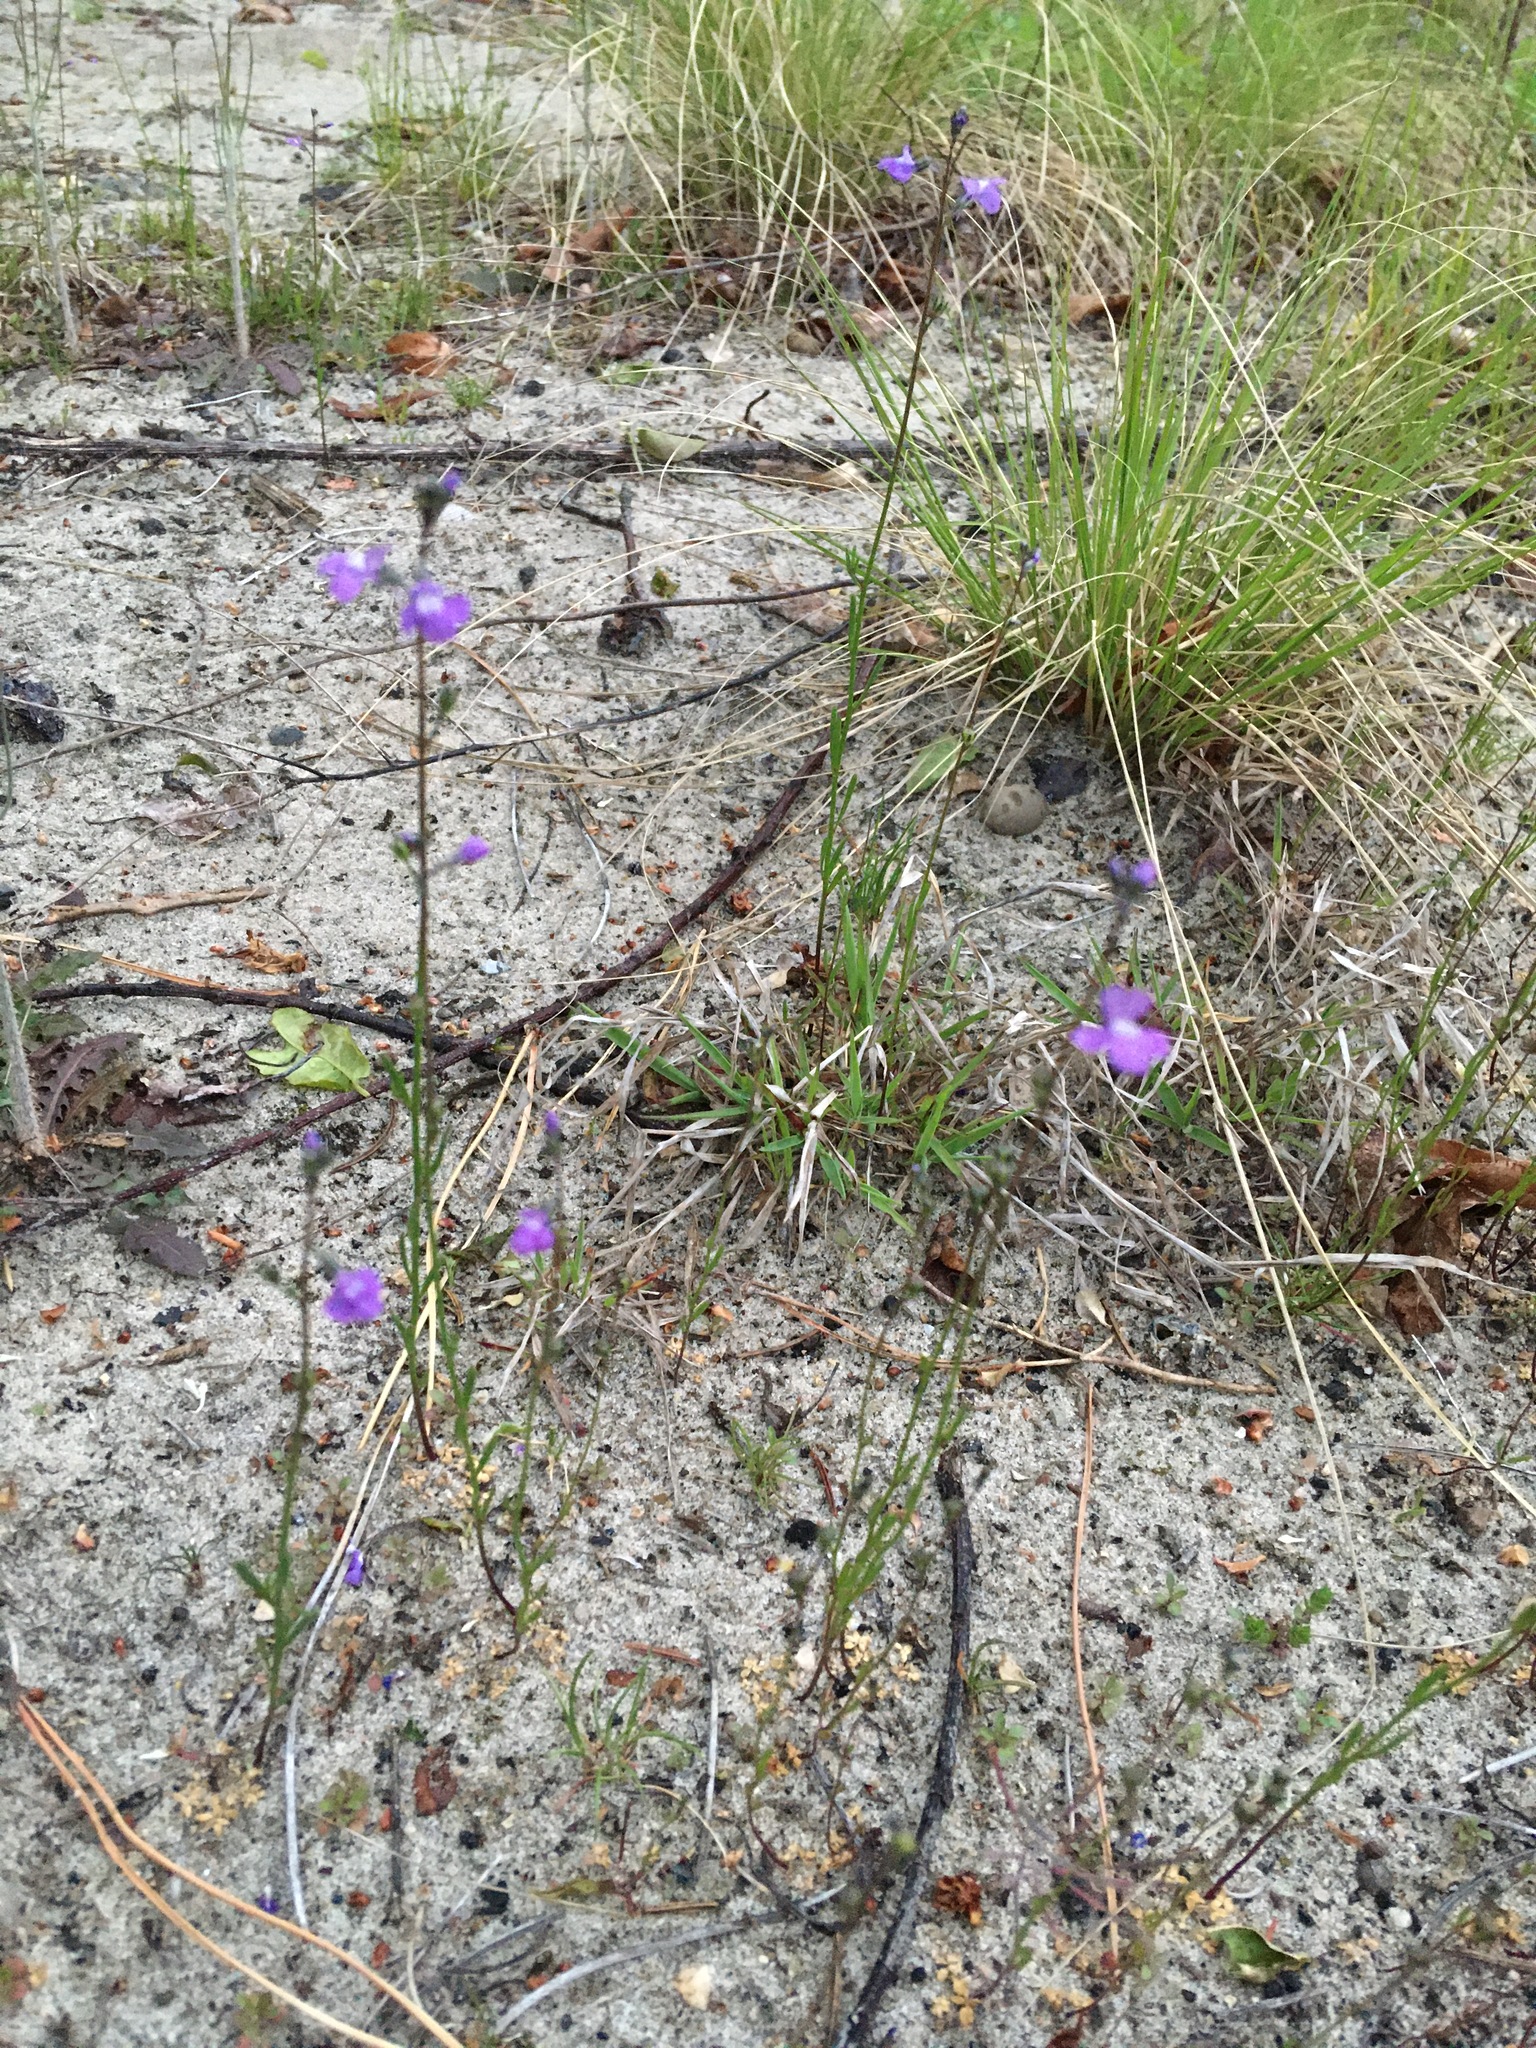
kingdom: Plantae
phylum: Tracheophyta
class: Magnoliopsida
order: Lamiales
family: Plantaginaceae
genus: Nuttallanthus
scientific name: Nuttallanthus canadensis
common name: Blue toadflax
